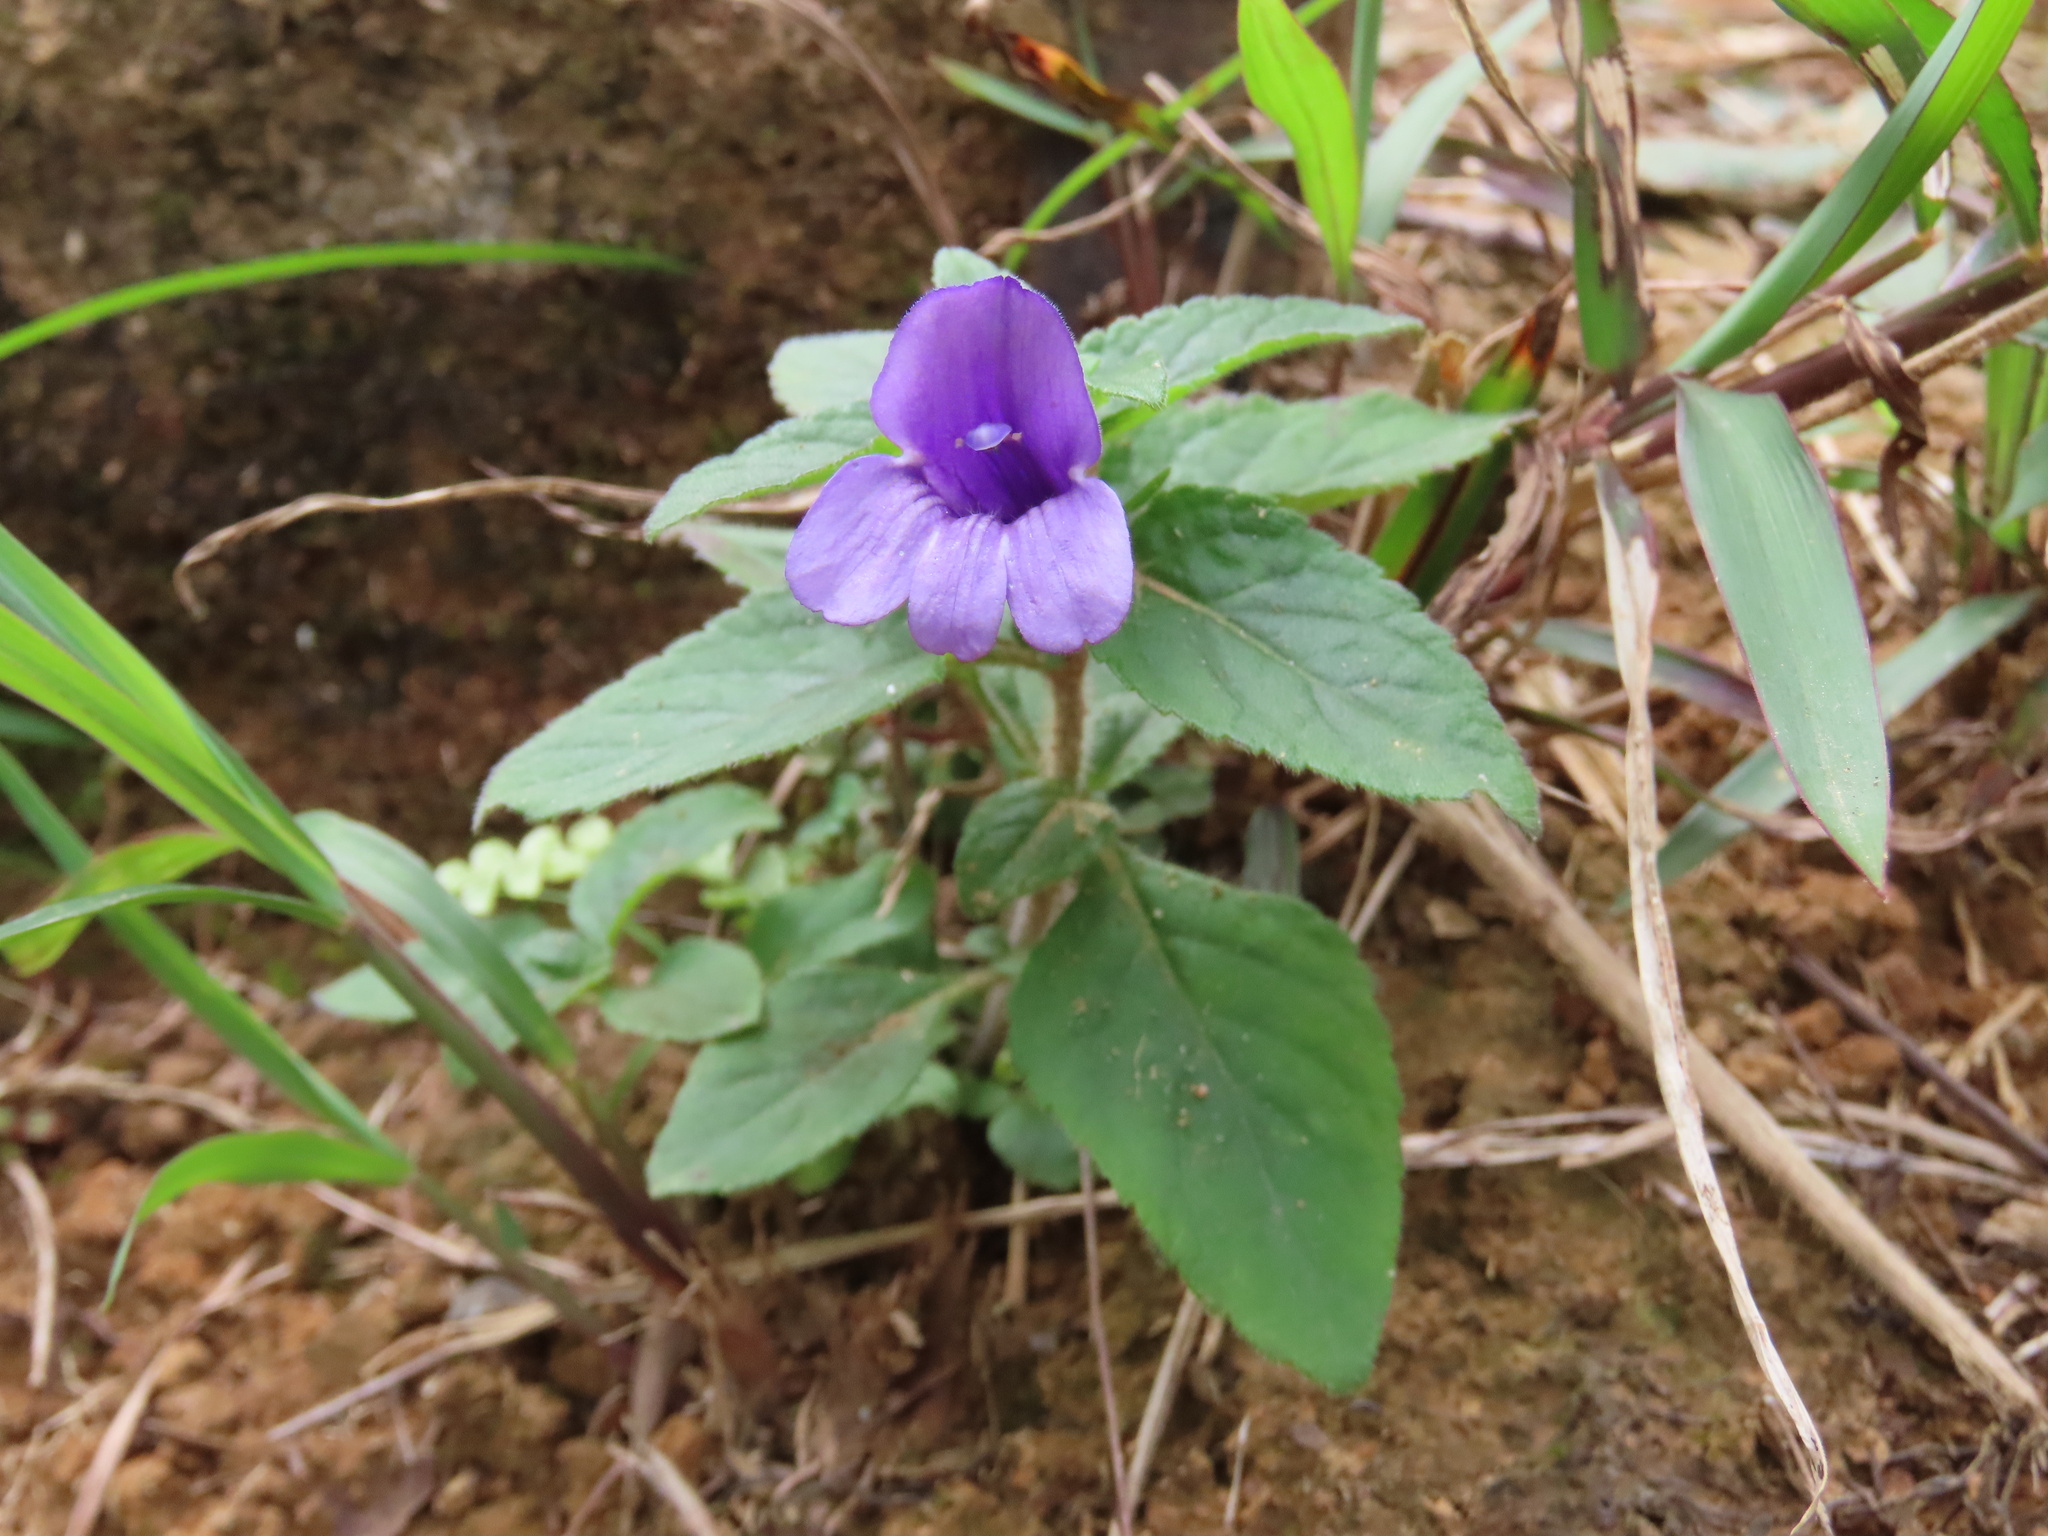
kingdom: Plantae
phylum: Tracheophyta
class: Magnoliopsida
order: Lamiales
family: Plantaginaceae
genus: Adenosma
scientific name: Adenosma glutinosa
